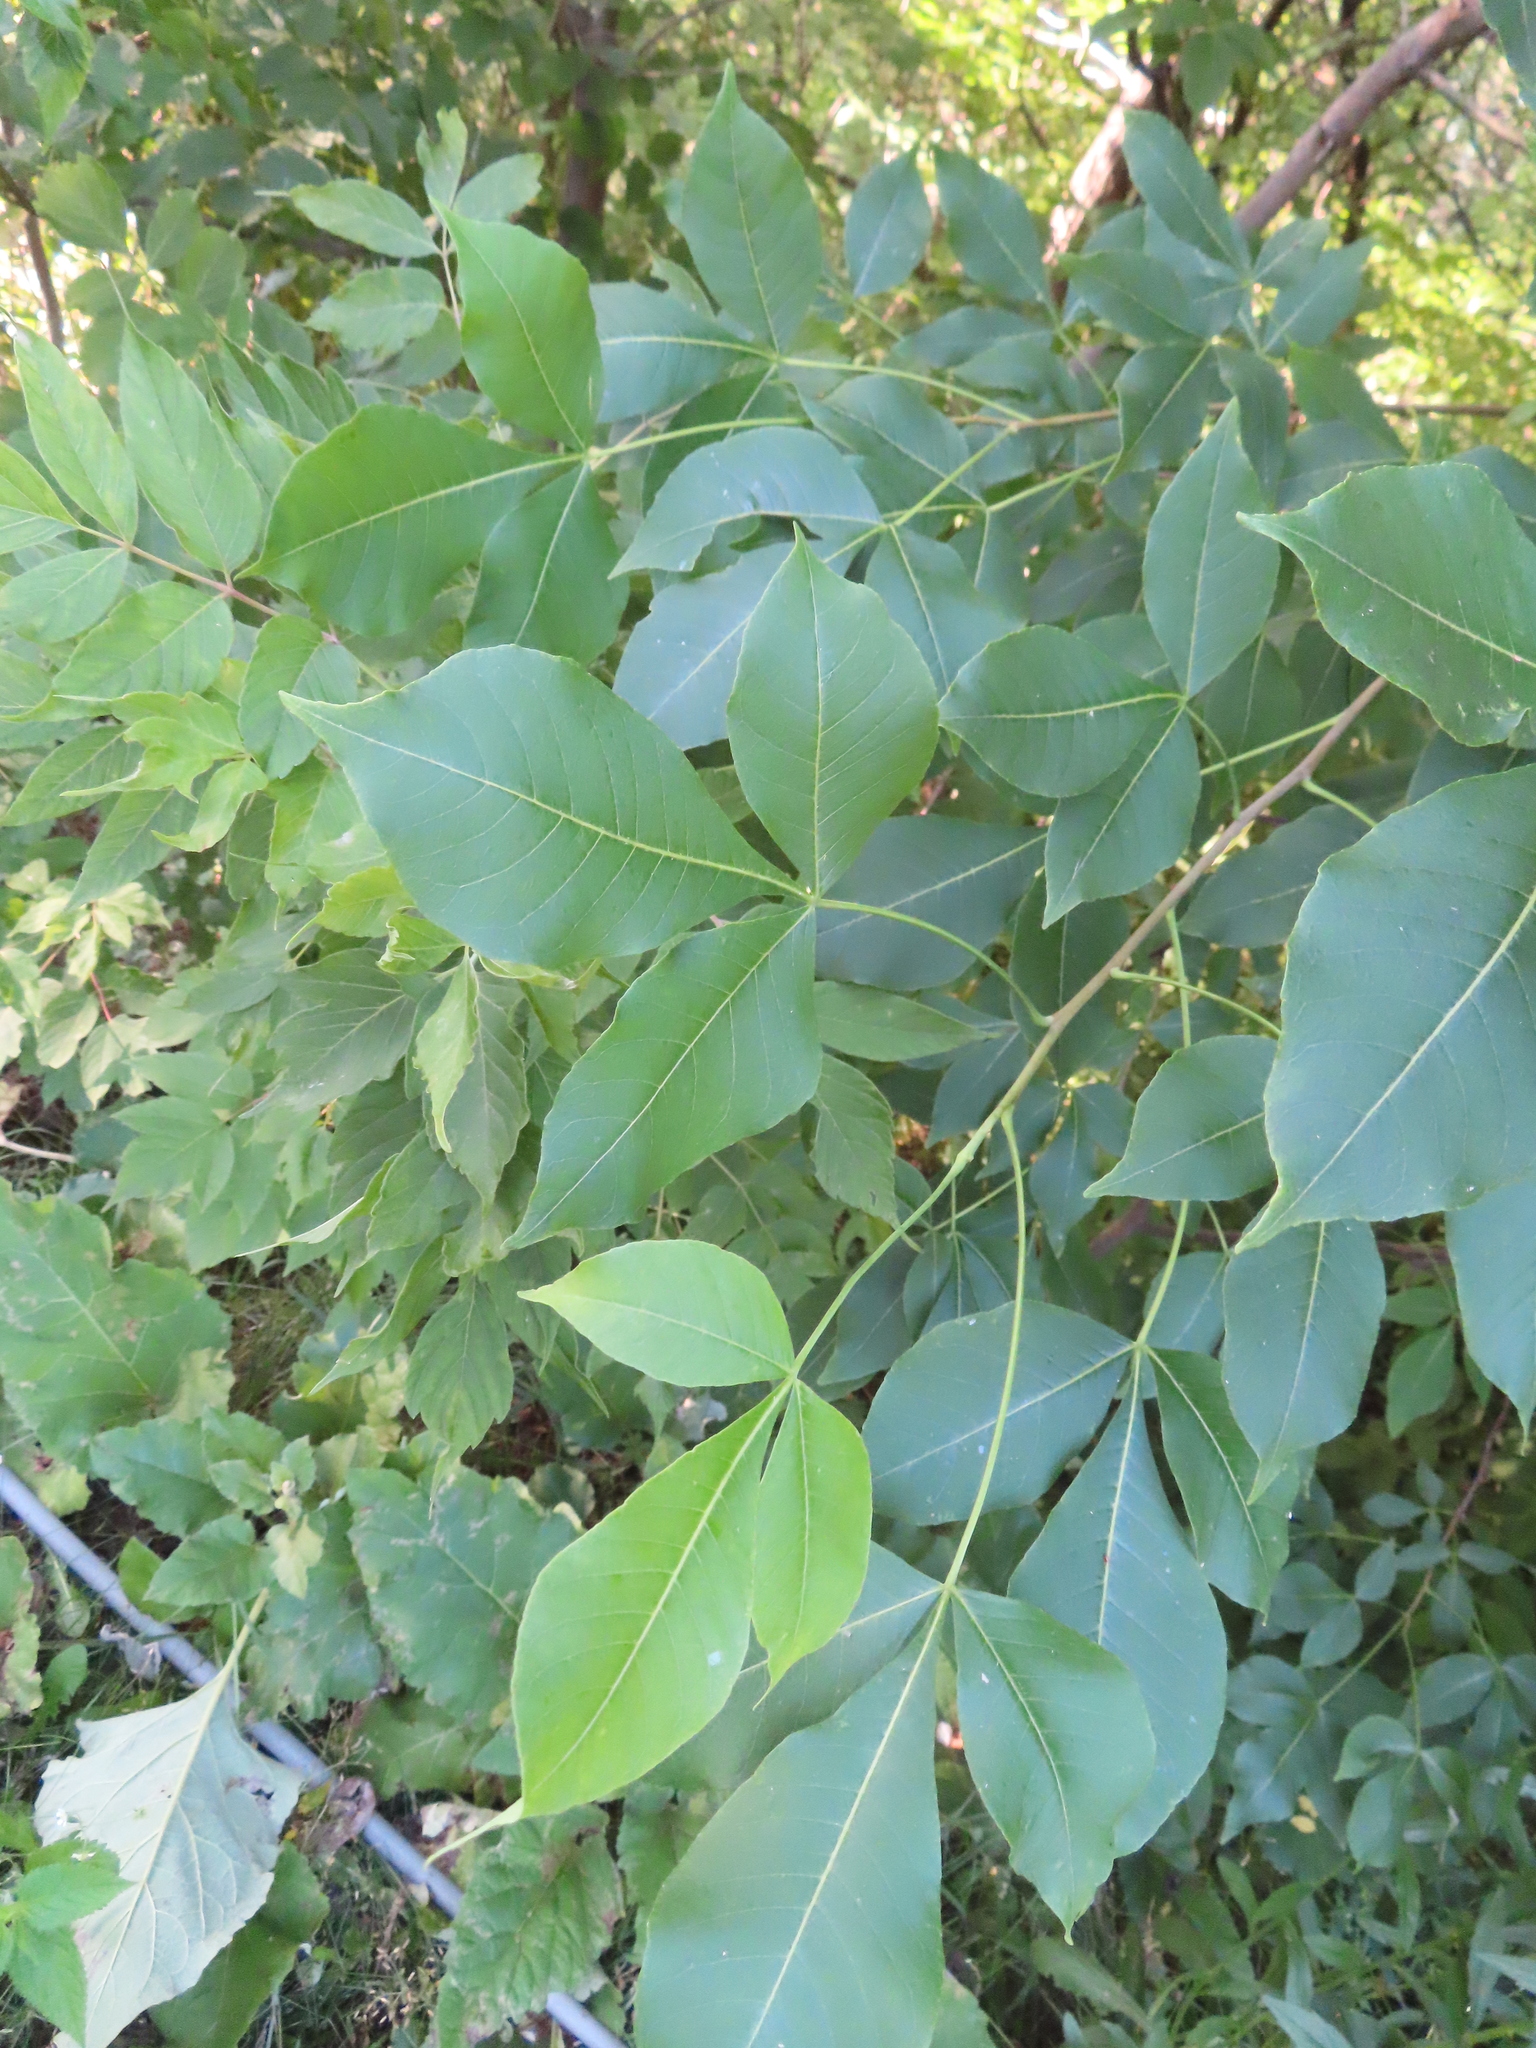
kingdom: Plantae
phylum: Tracheophyta
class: Magnoliopsida
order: Sapindales
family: Rutaceae
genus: Ptelea
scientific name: Ptelea trifoliata
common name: Common hop-tree
